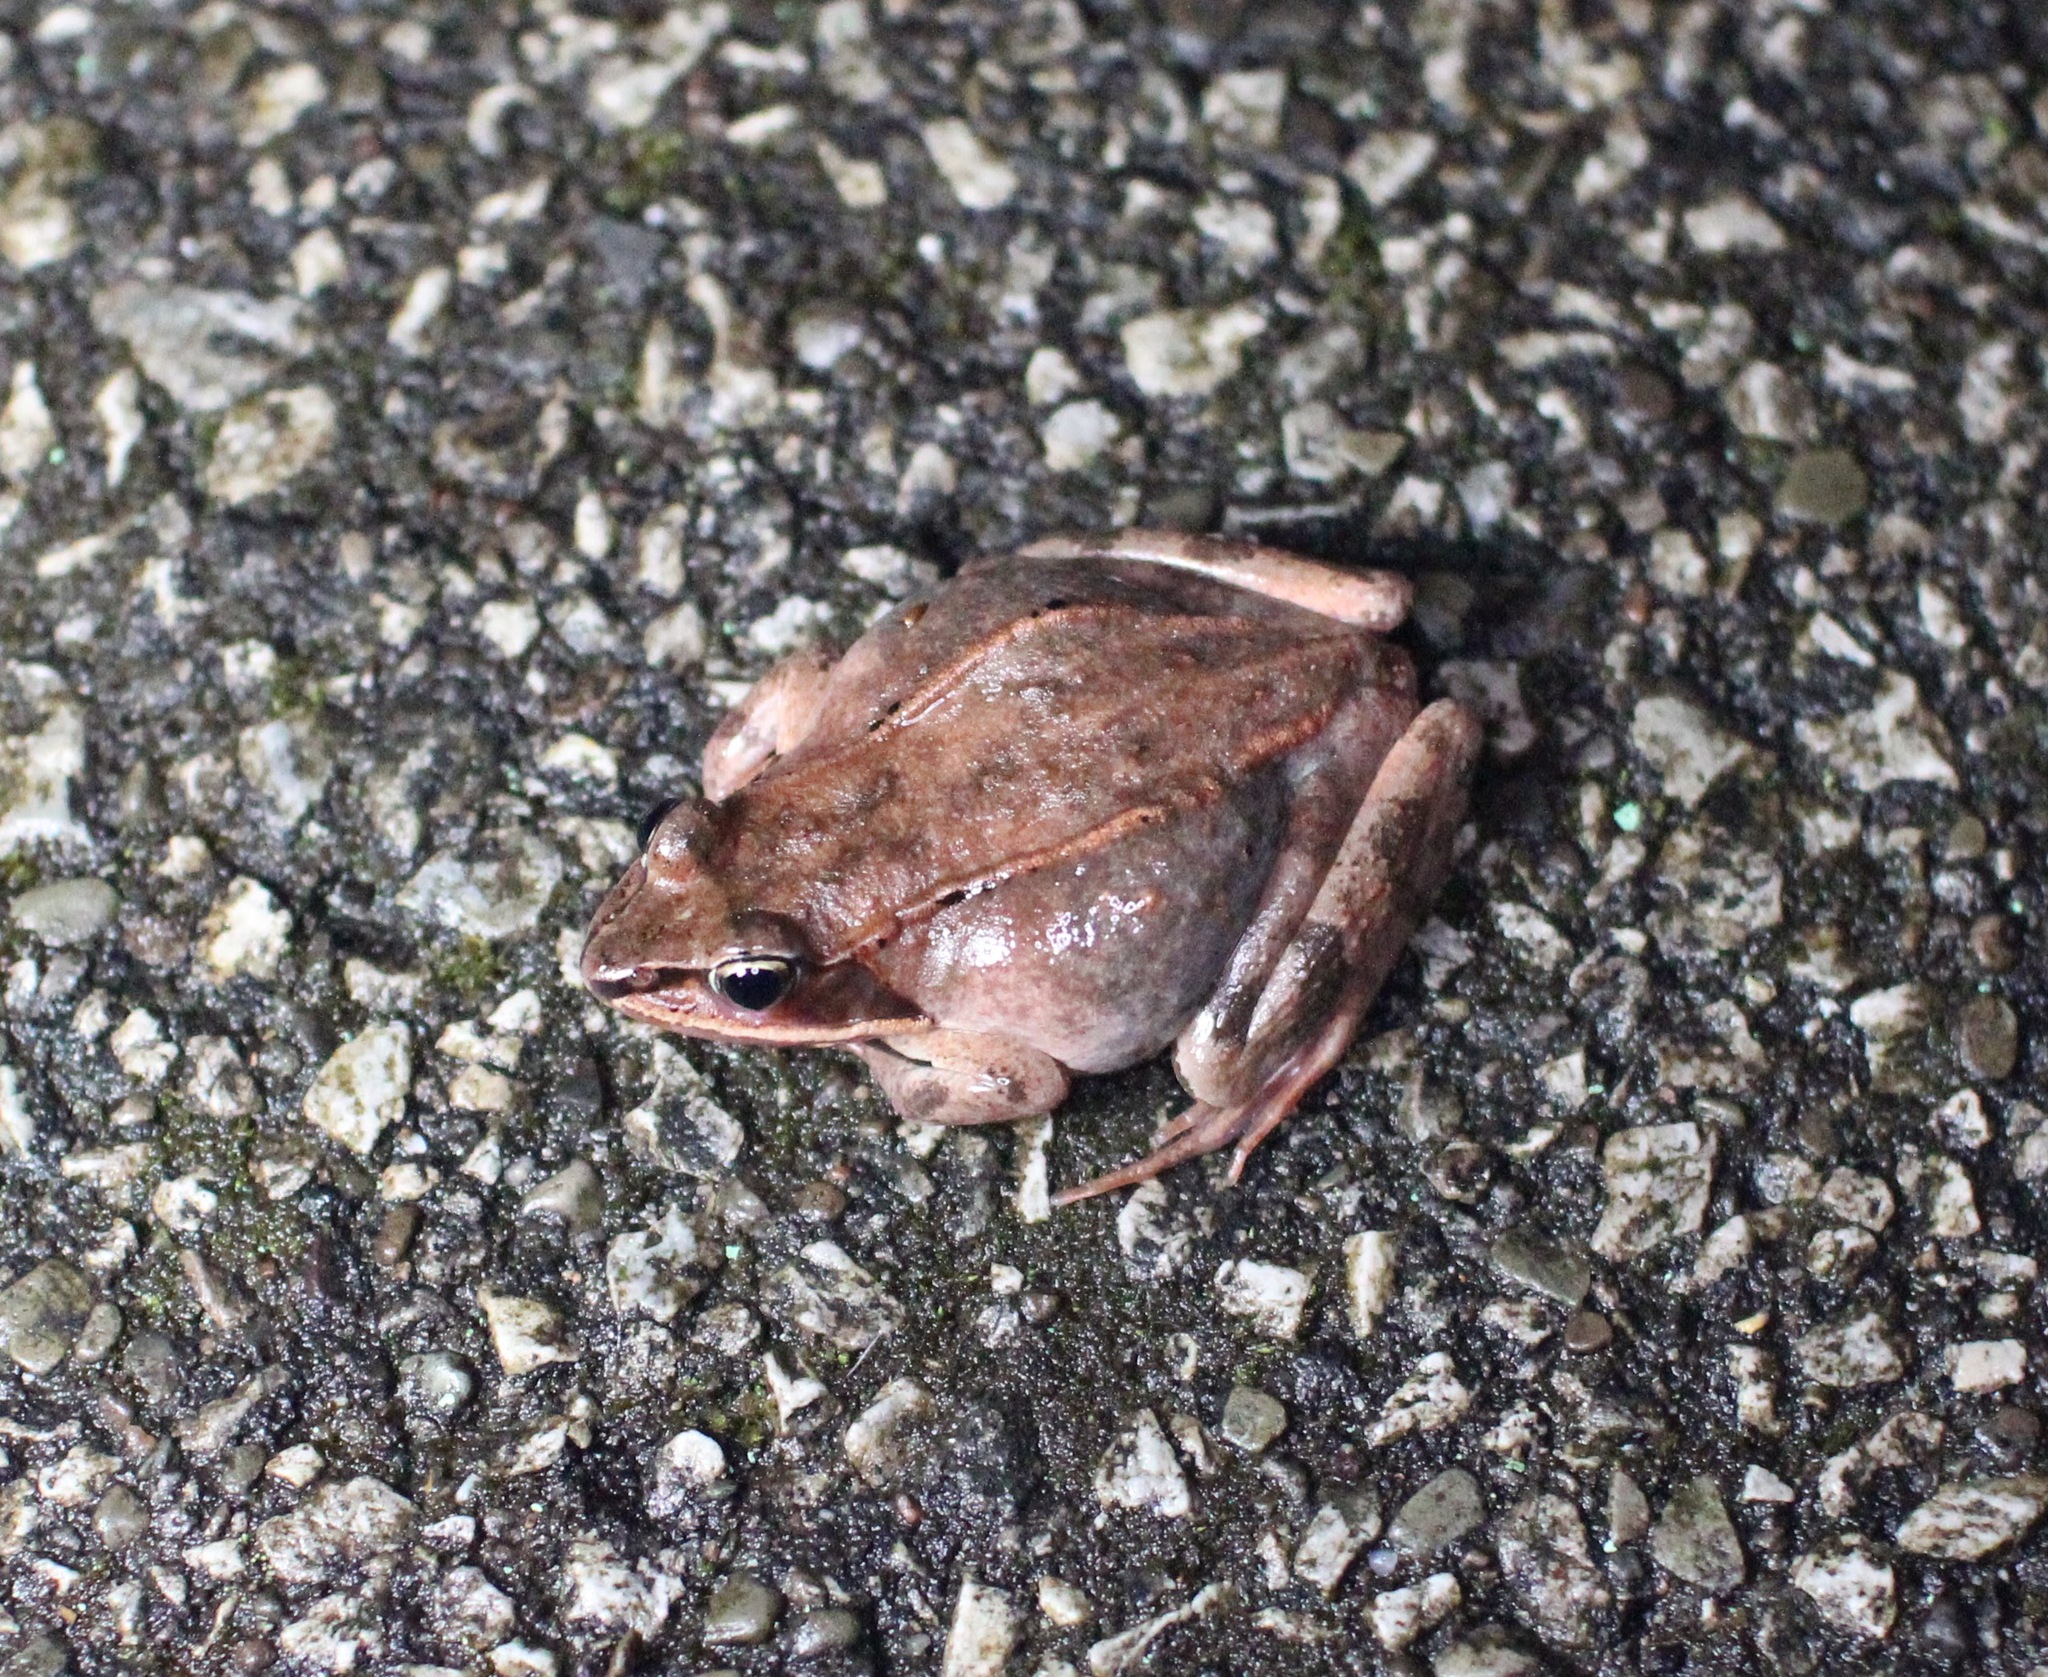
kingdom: Animalia
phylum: Chordata
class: Amphibia
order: Anura
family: Ranidae
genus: Lithobates
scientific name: Lithobates sylvaticus
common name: Wood frog
